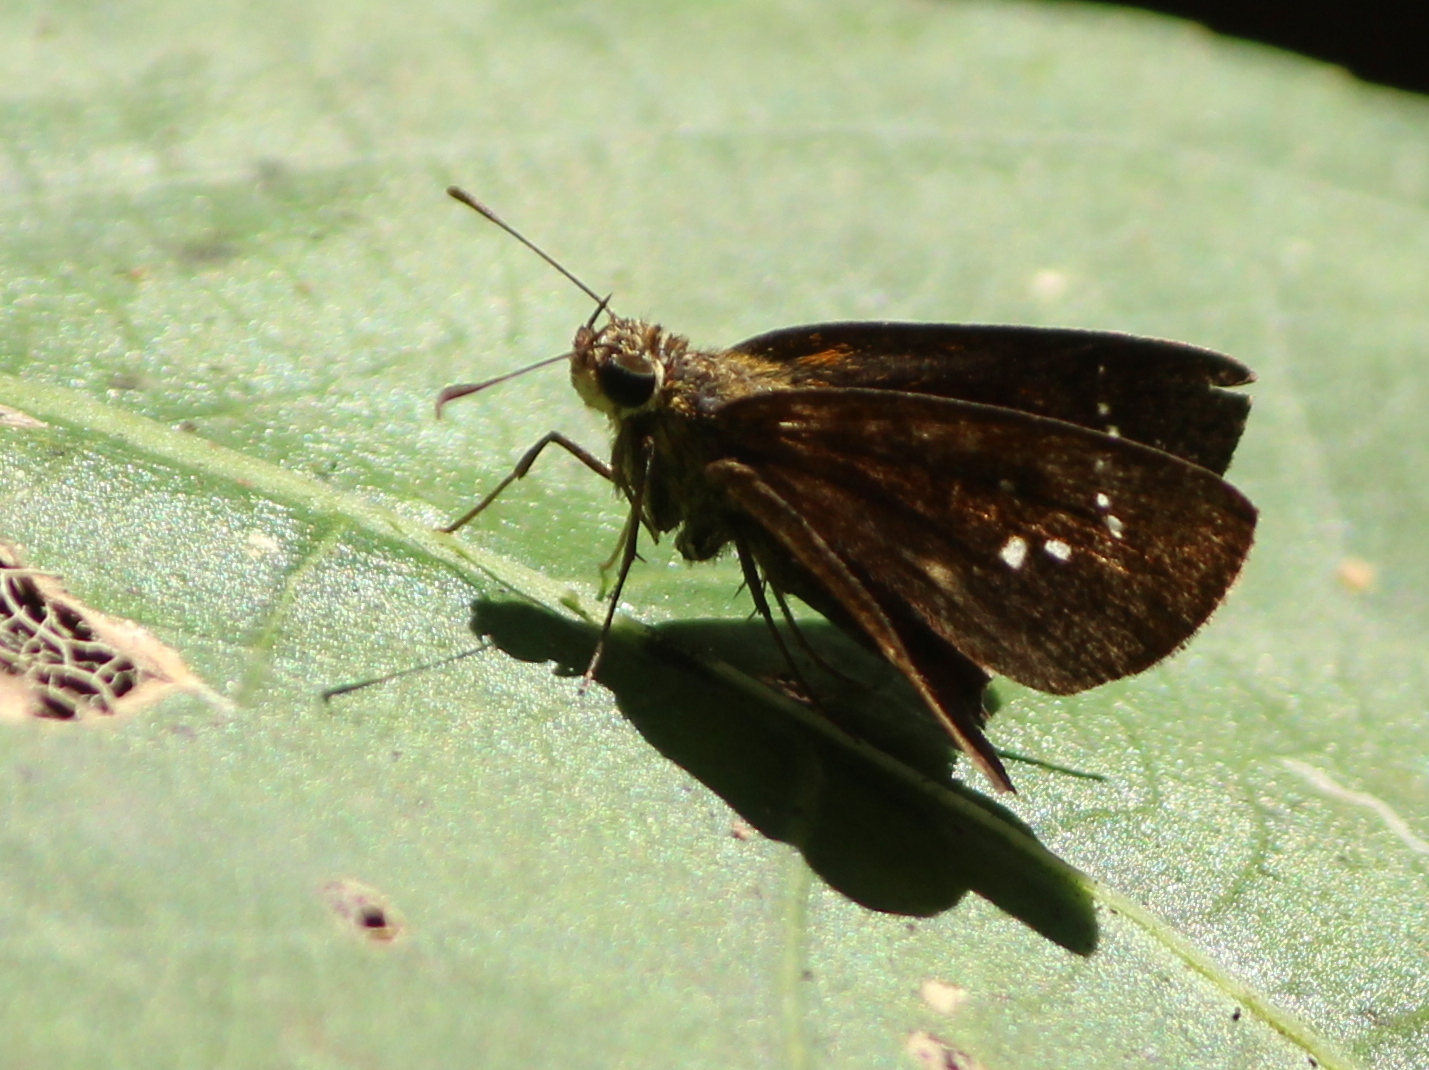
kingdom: Animalia
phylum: Arthropoda
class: Insecta
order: Lepidoptera
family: Hesperiidae
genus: Iambrix
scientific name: Iambrix salsala
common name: Chestnut bob
